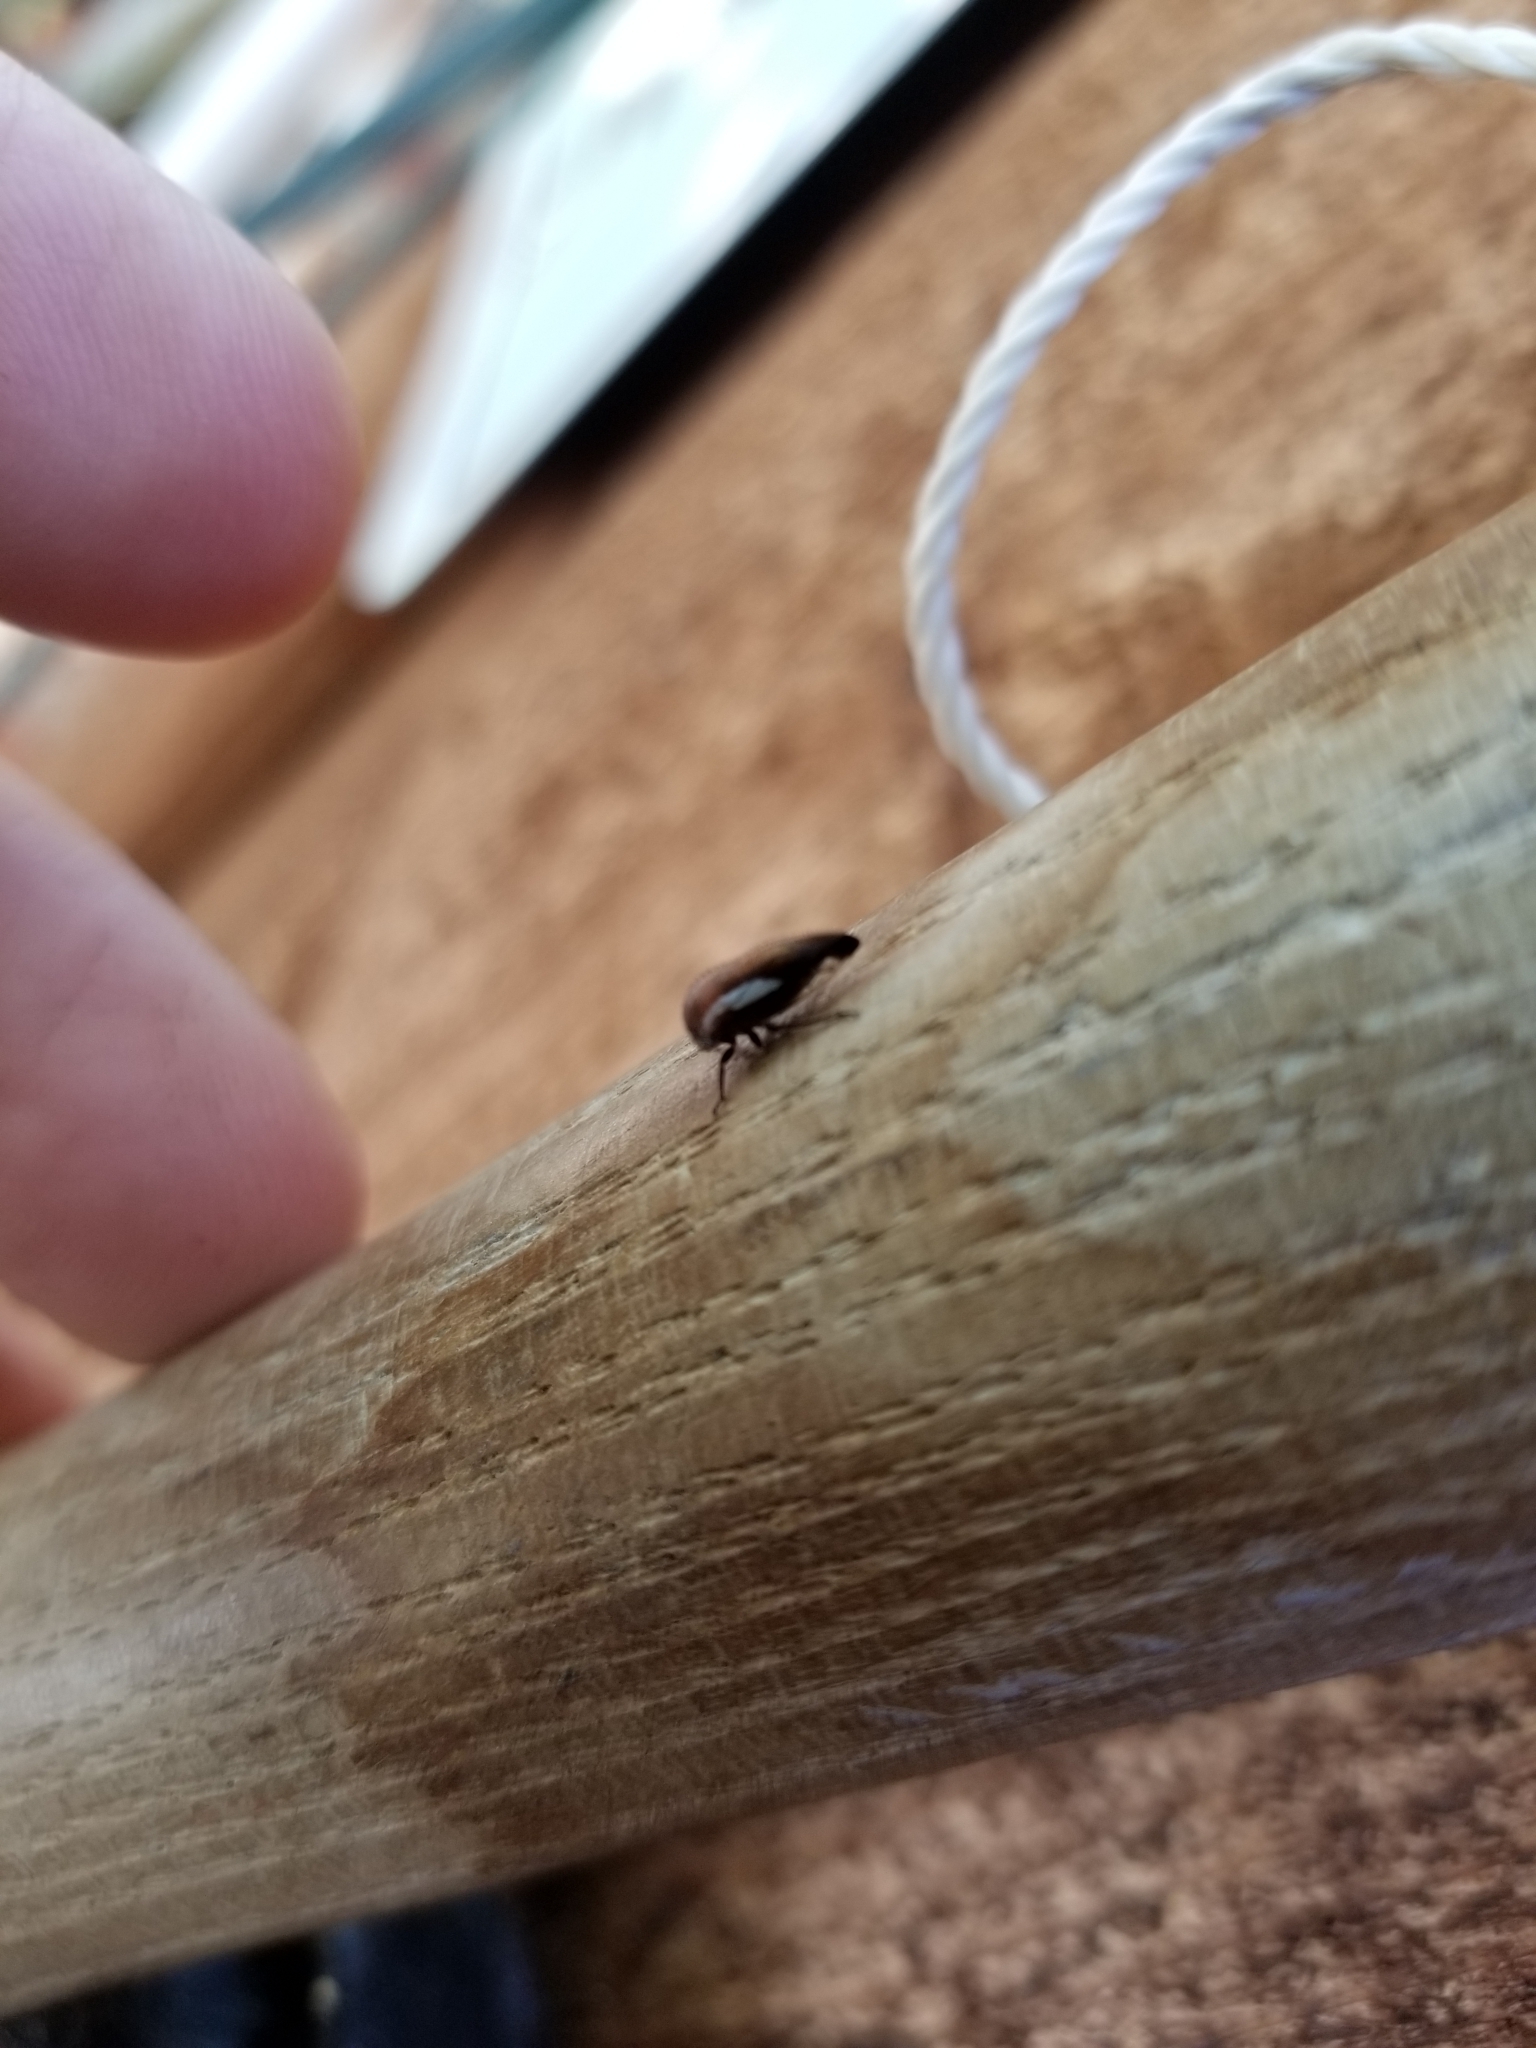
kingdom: Animalia
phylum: Arthropoda
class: Insecta
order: Hemiptera
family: Membracidae
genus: Ophiderma
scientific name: Ophiderma flavicephala
